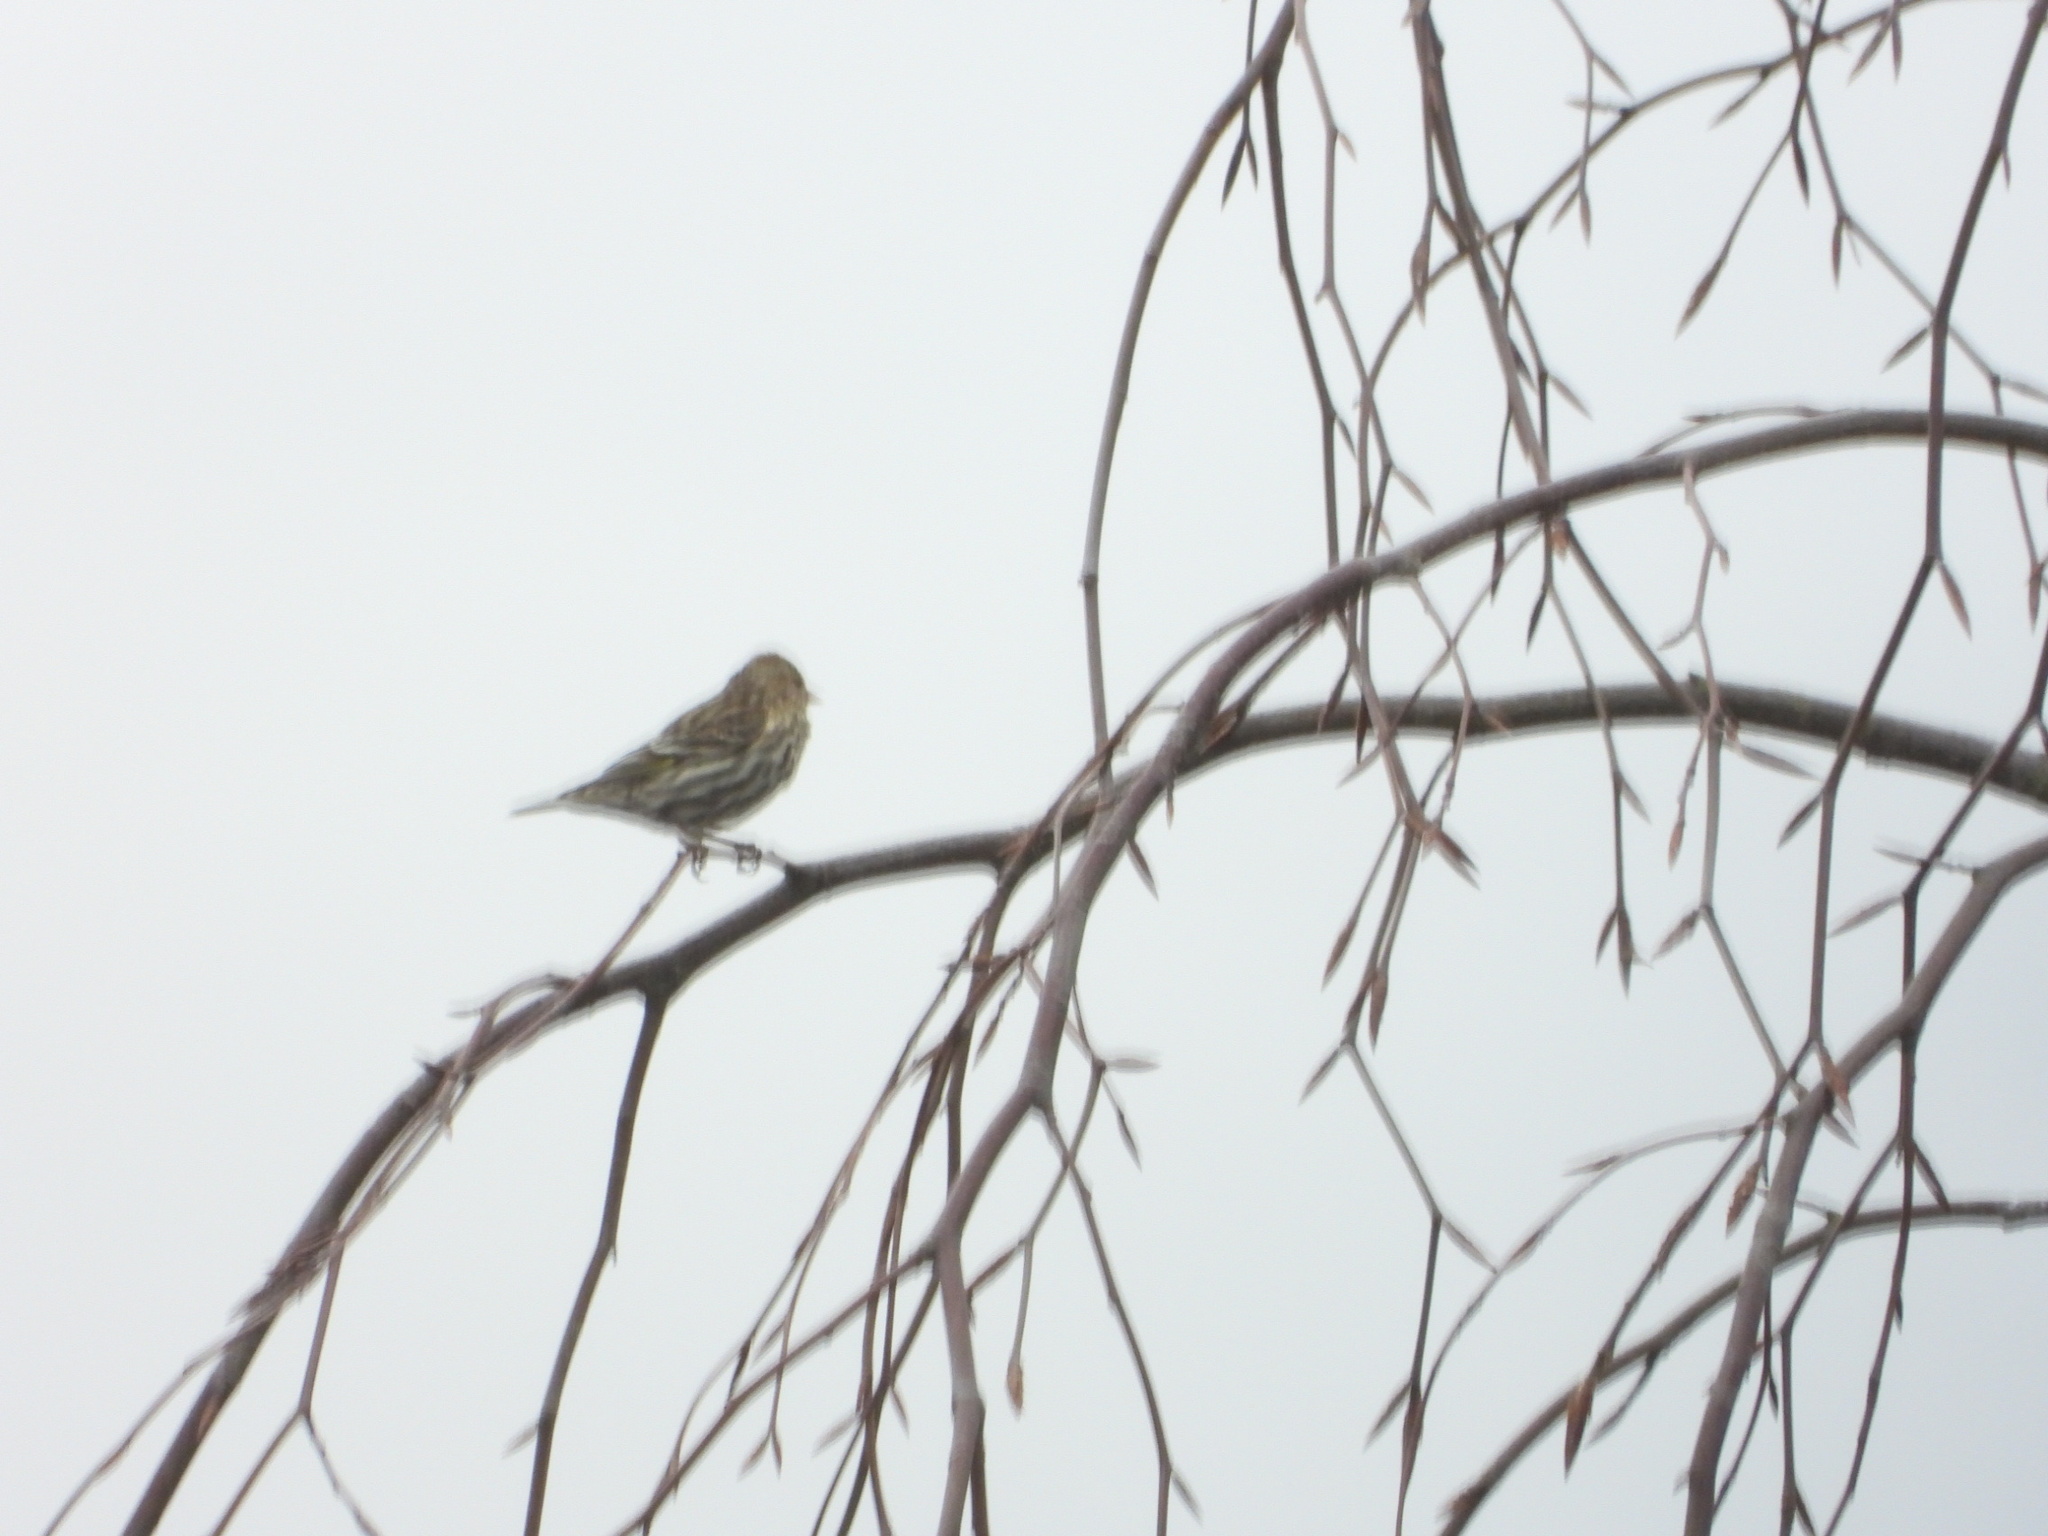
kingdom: Animalia
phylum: Chordata
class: Aves
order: Passeriformes
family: Fringillidae
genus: Spinus
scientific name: Spinus pinus
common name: Pine siskin
